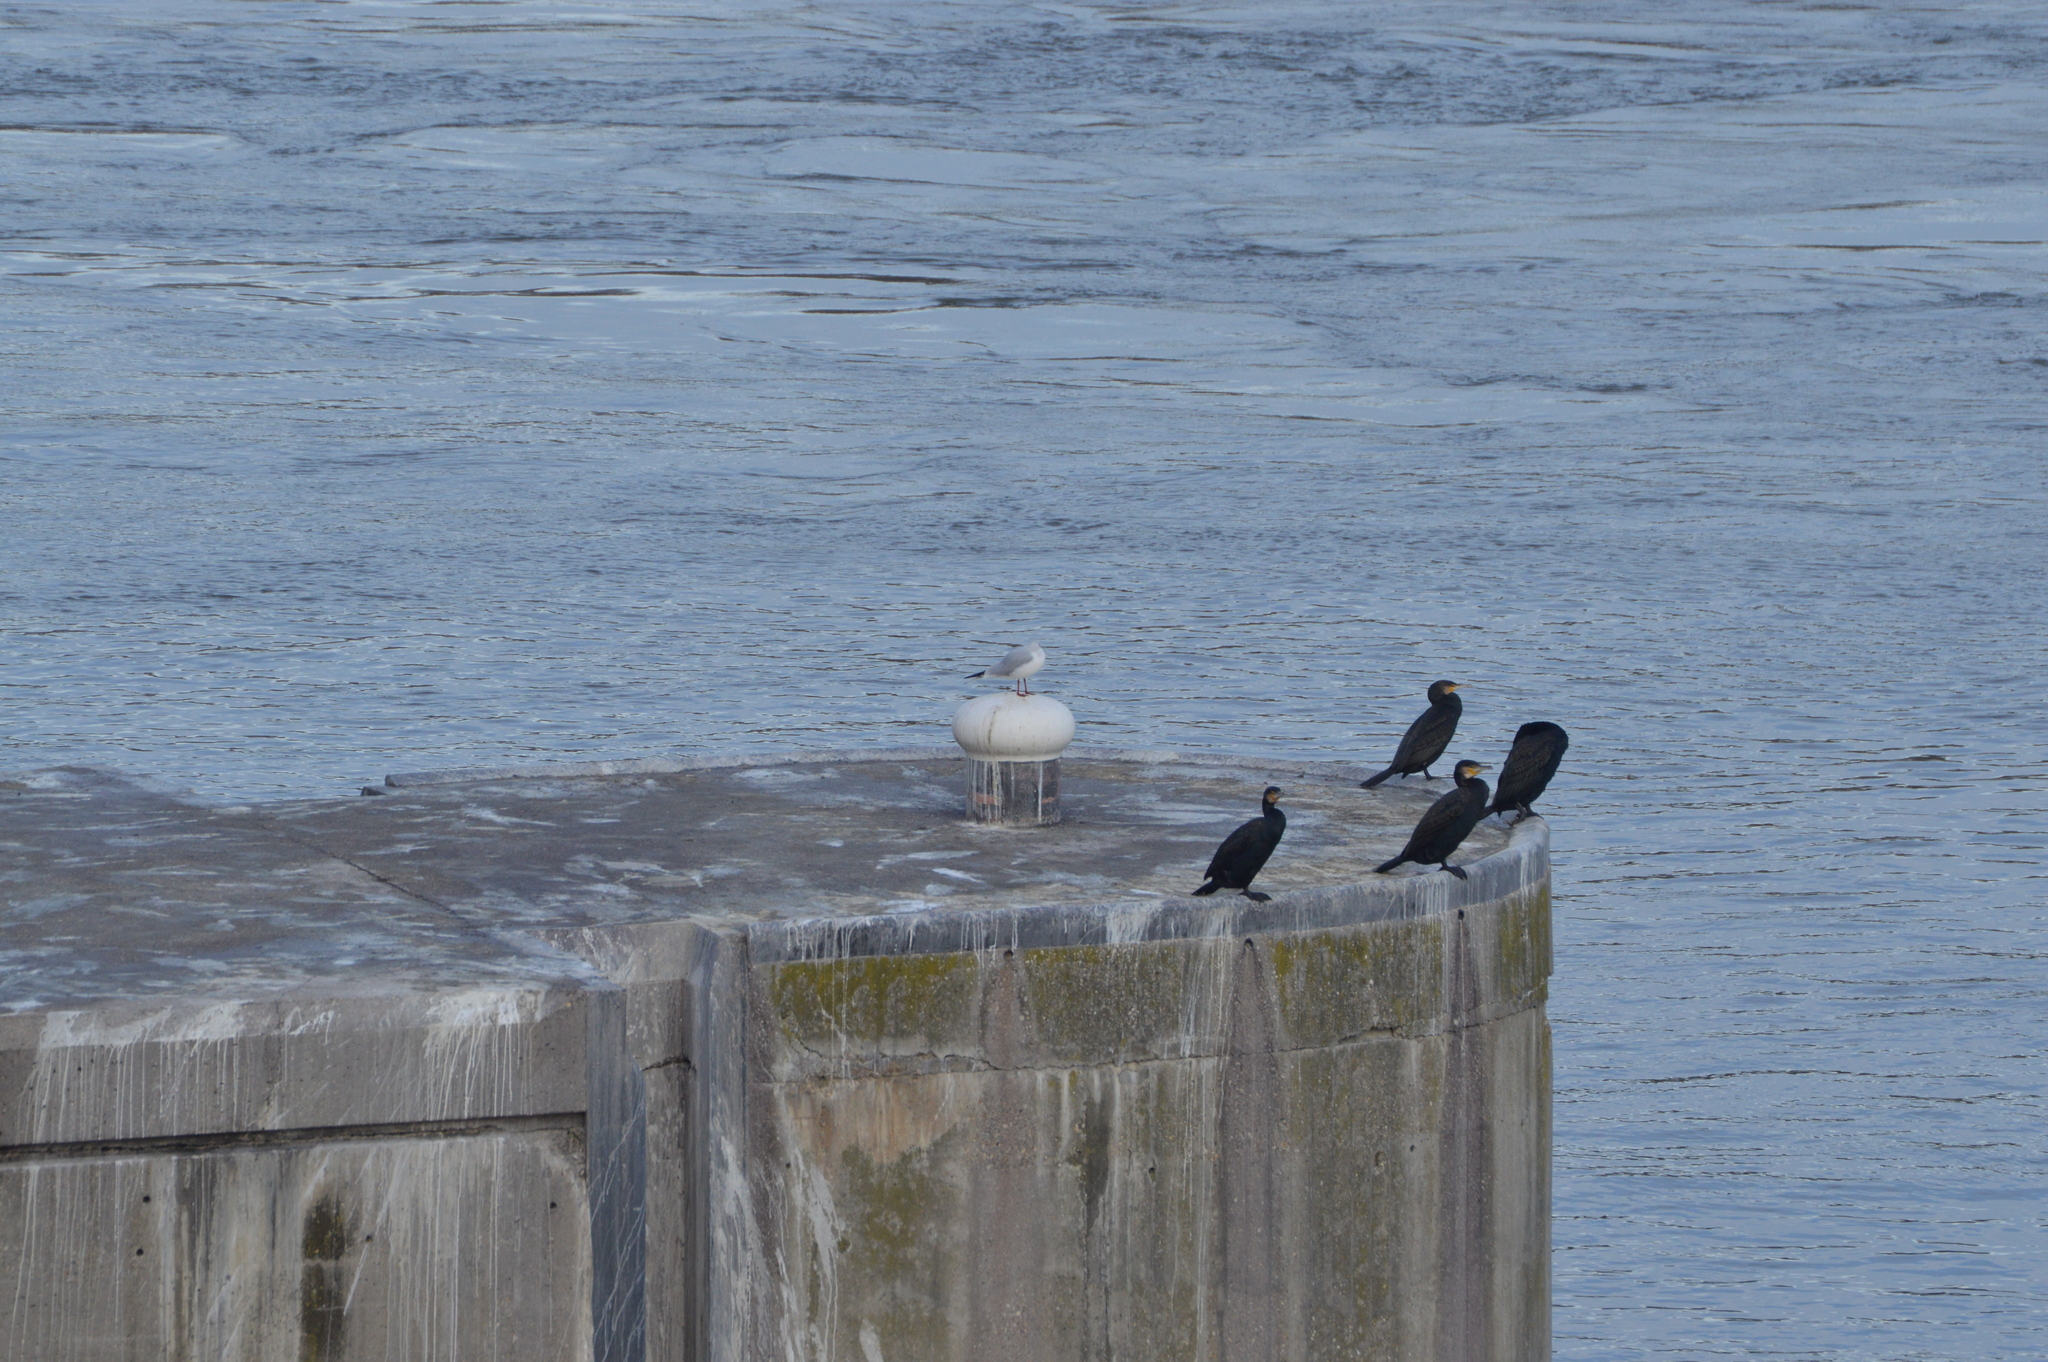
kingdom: Animalia
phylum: Chordata
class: Aves
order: Suliformes
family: Phalacrocoracidae
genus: Phalacrocorax
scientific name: Phalacrocorax carbo
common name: Great cormorant
